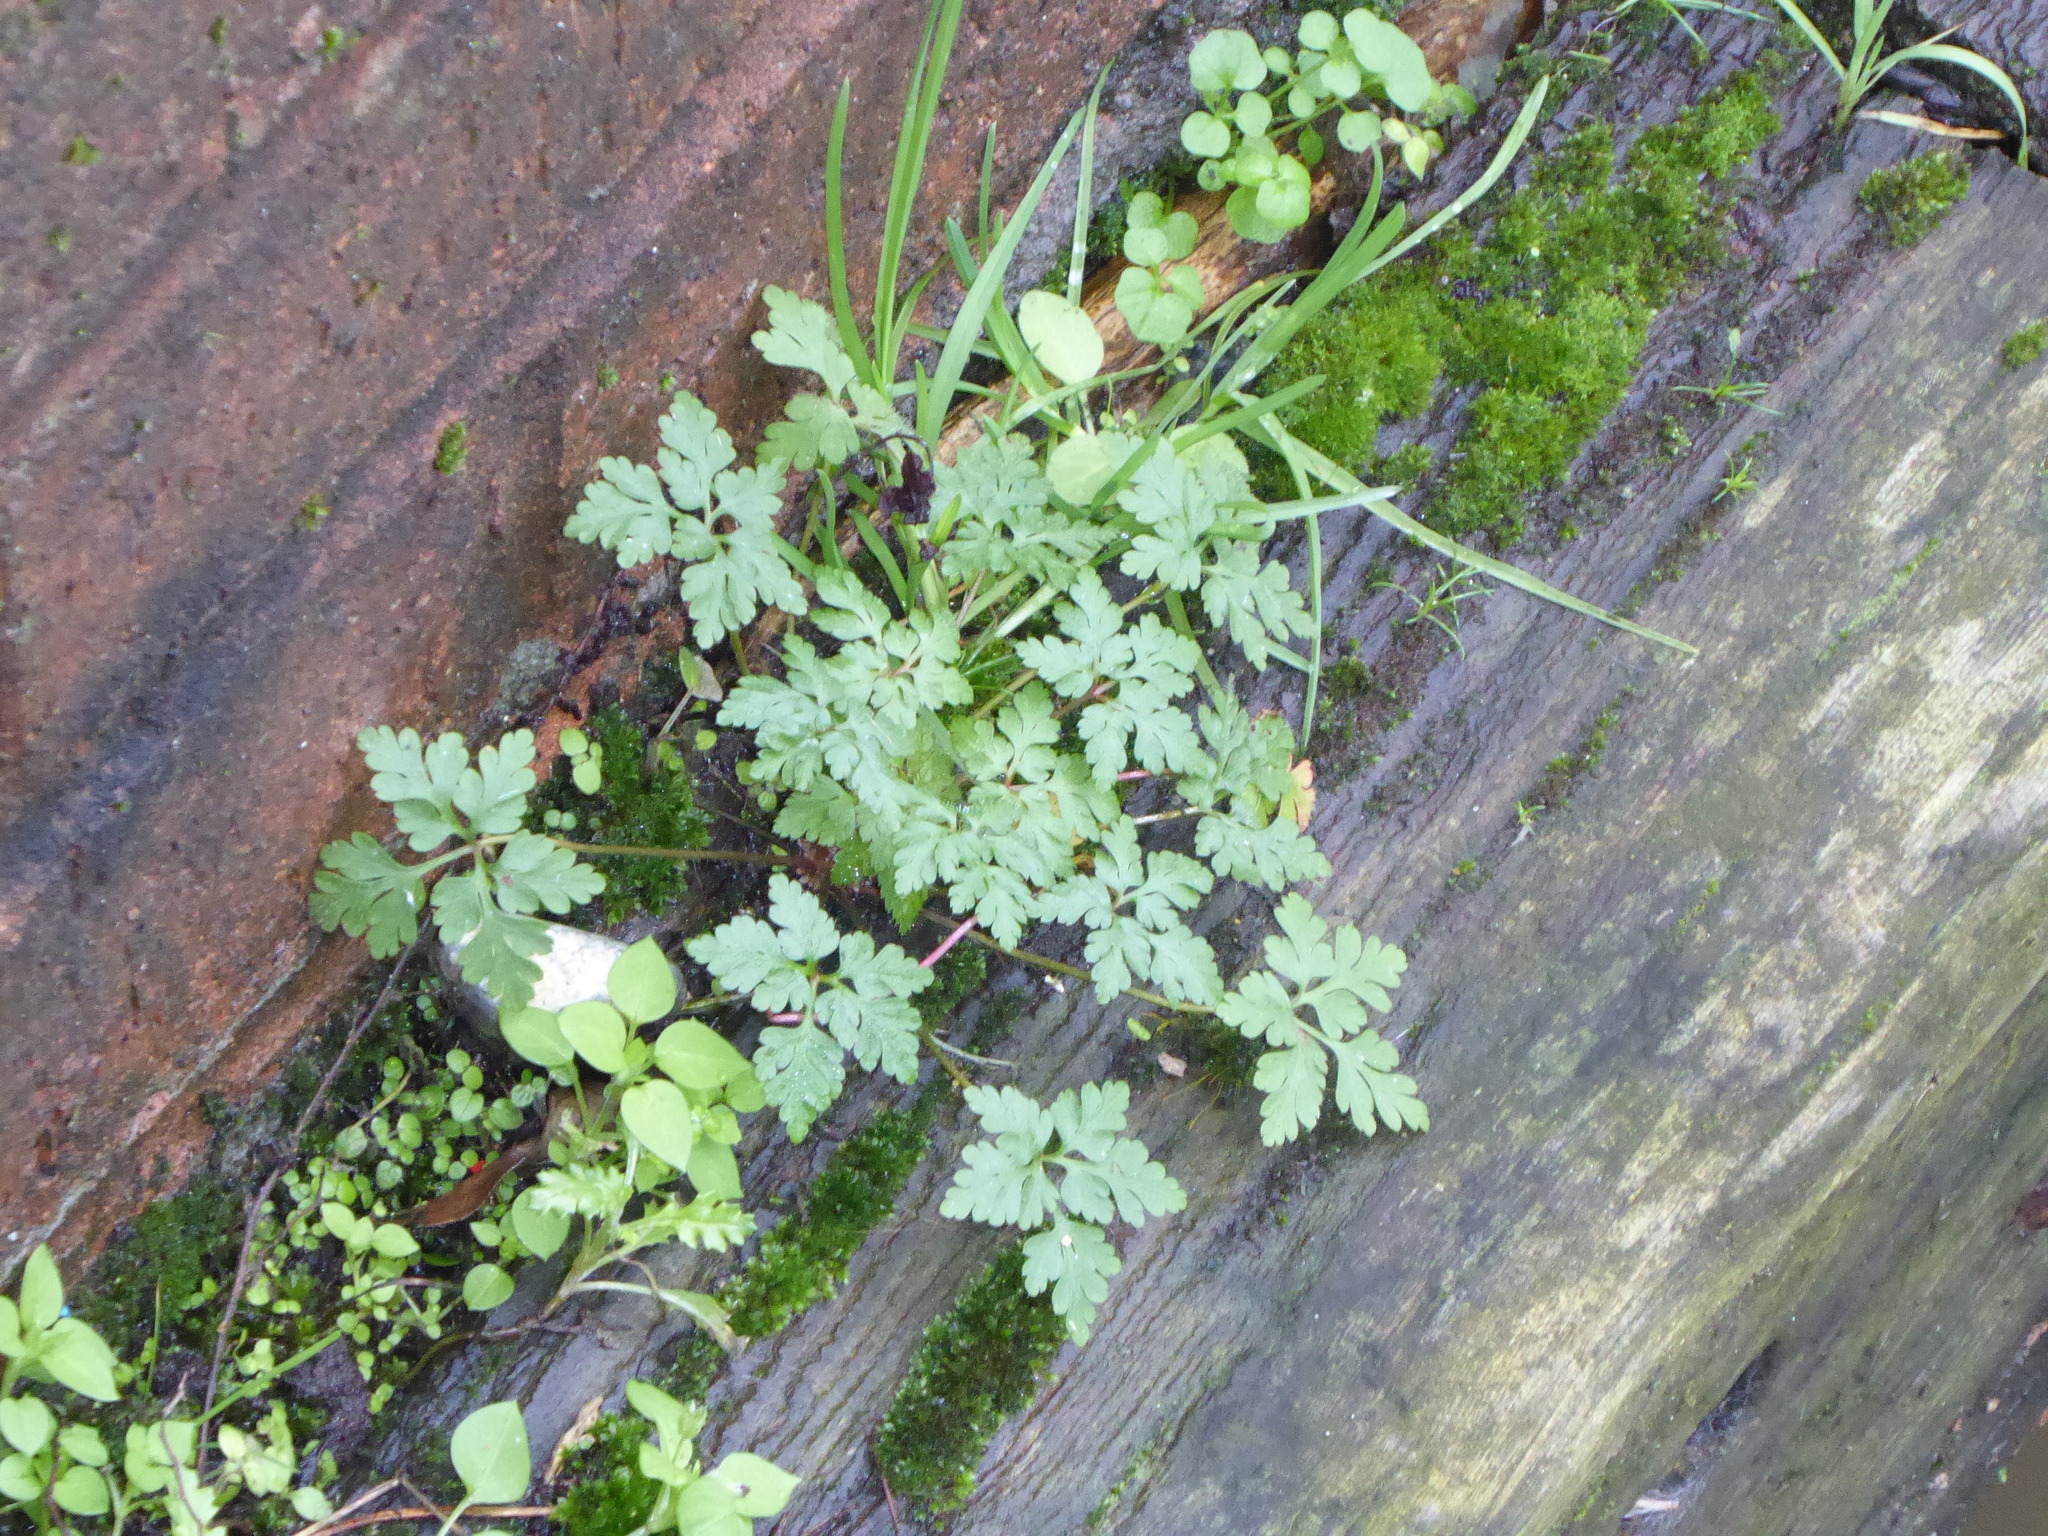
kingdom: Plantae
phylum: Tracheophyta
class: Magnoliopsida
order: Geraniales
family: Geraniaceae
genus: Geranium
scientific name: Geranium robertianum
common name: Herb-robert
